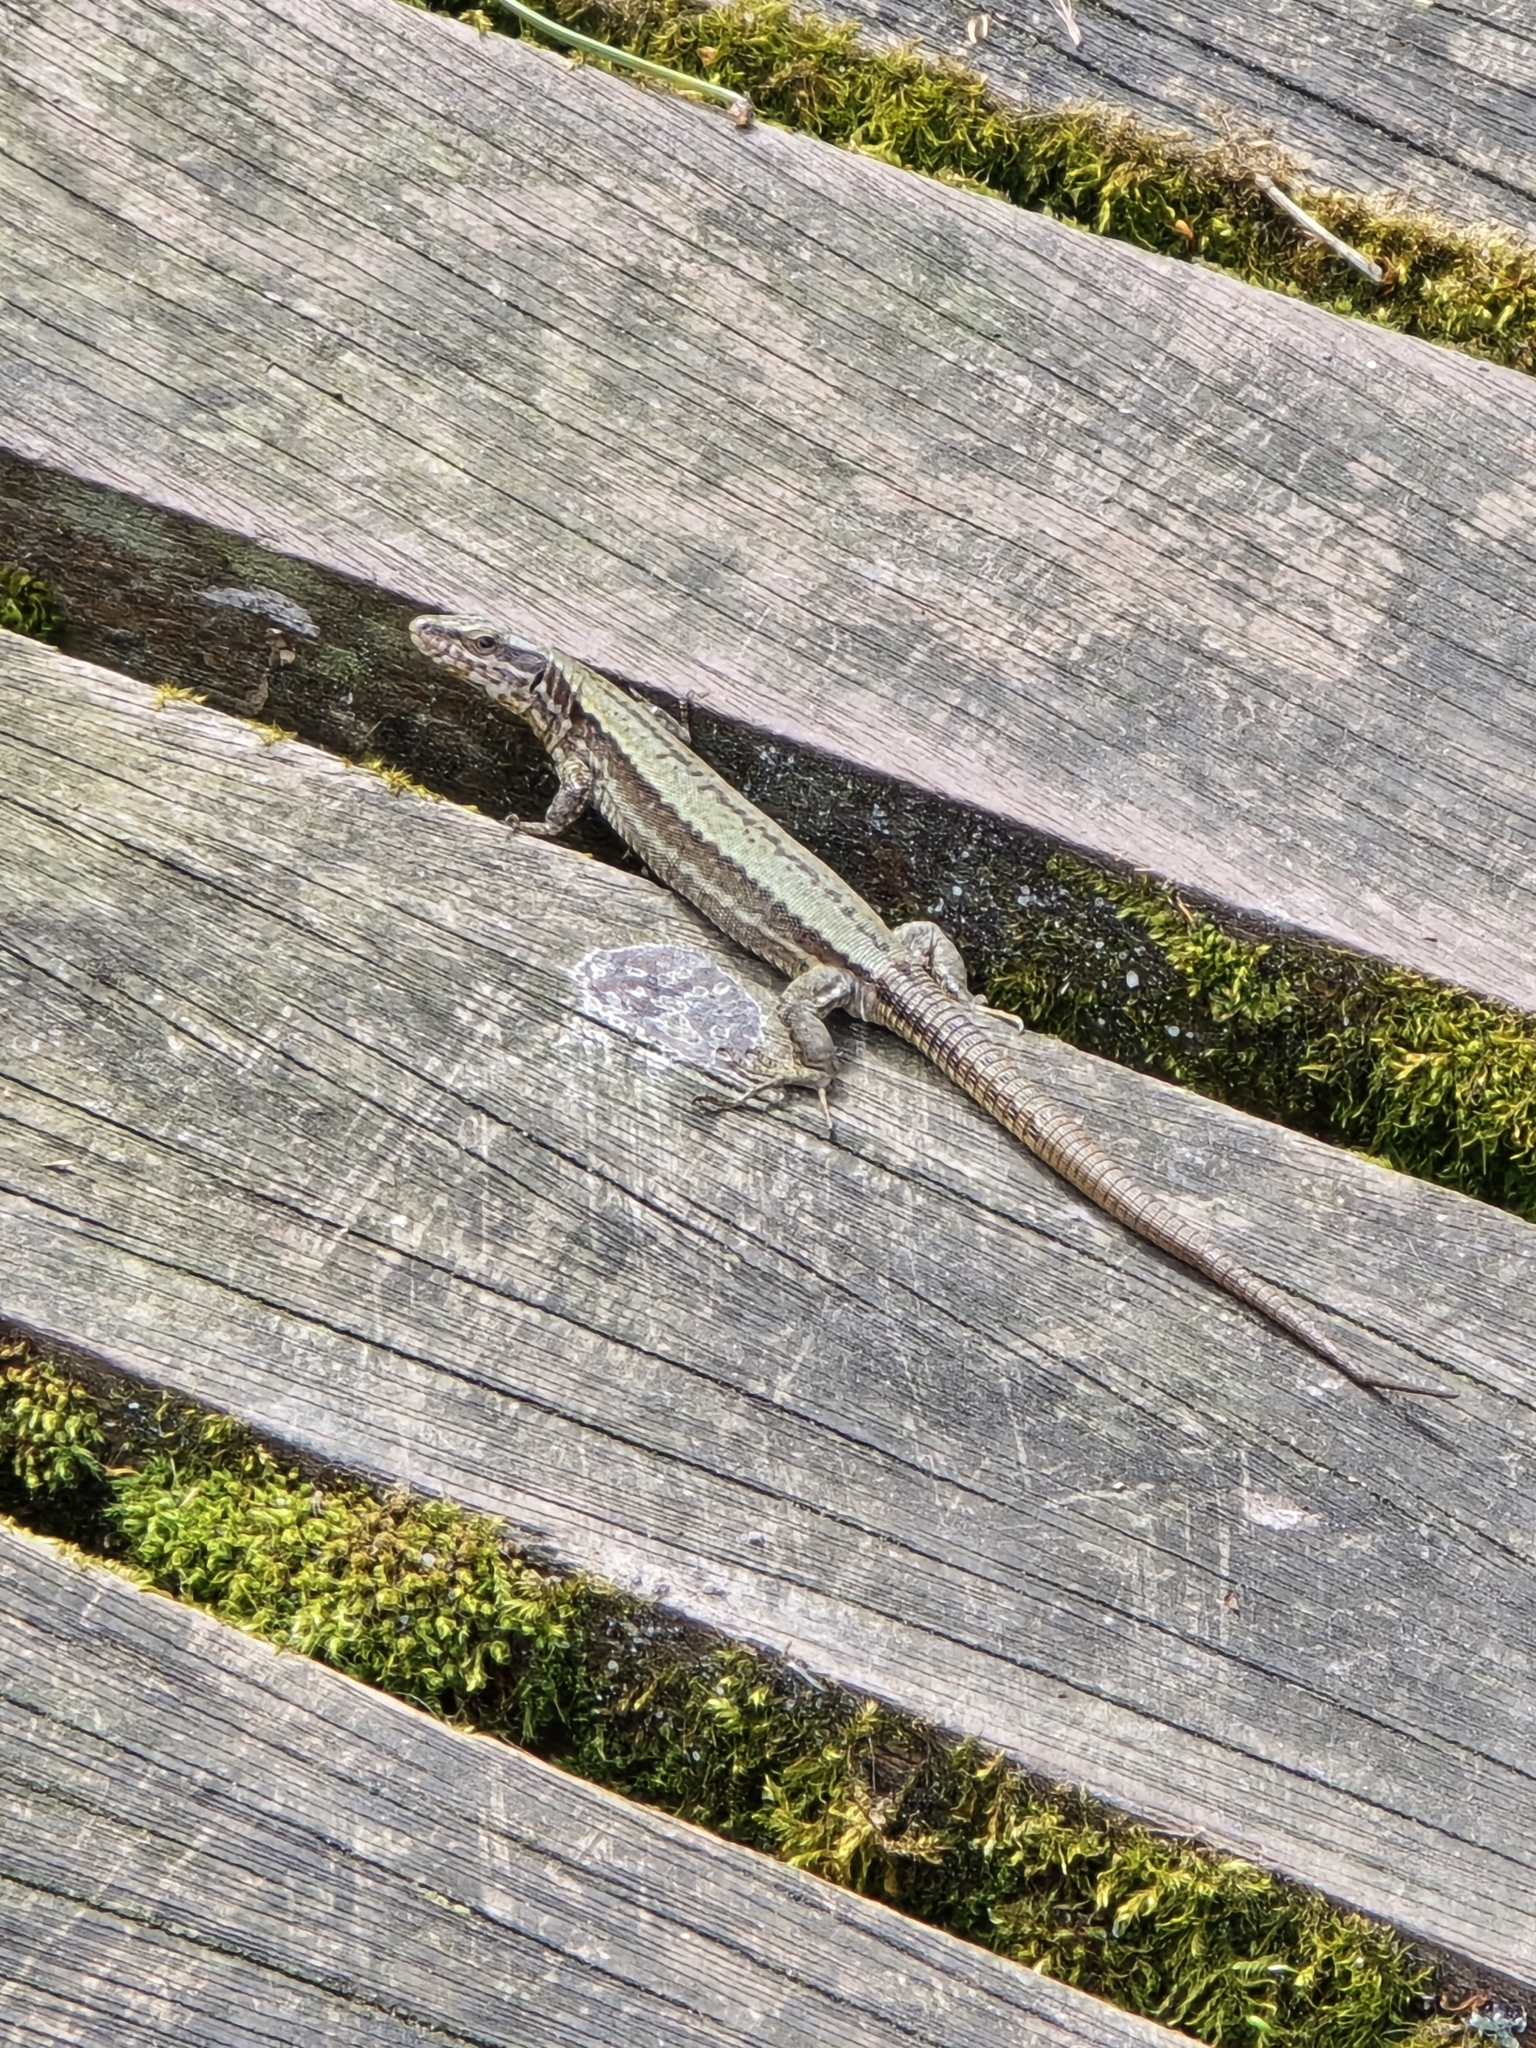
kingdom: Animalia
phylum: Chordata
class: Squamata
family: Lacertidae
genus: Podarcis
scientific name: Podarcis muralis
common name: Common wall lizard
